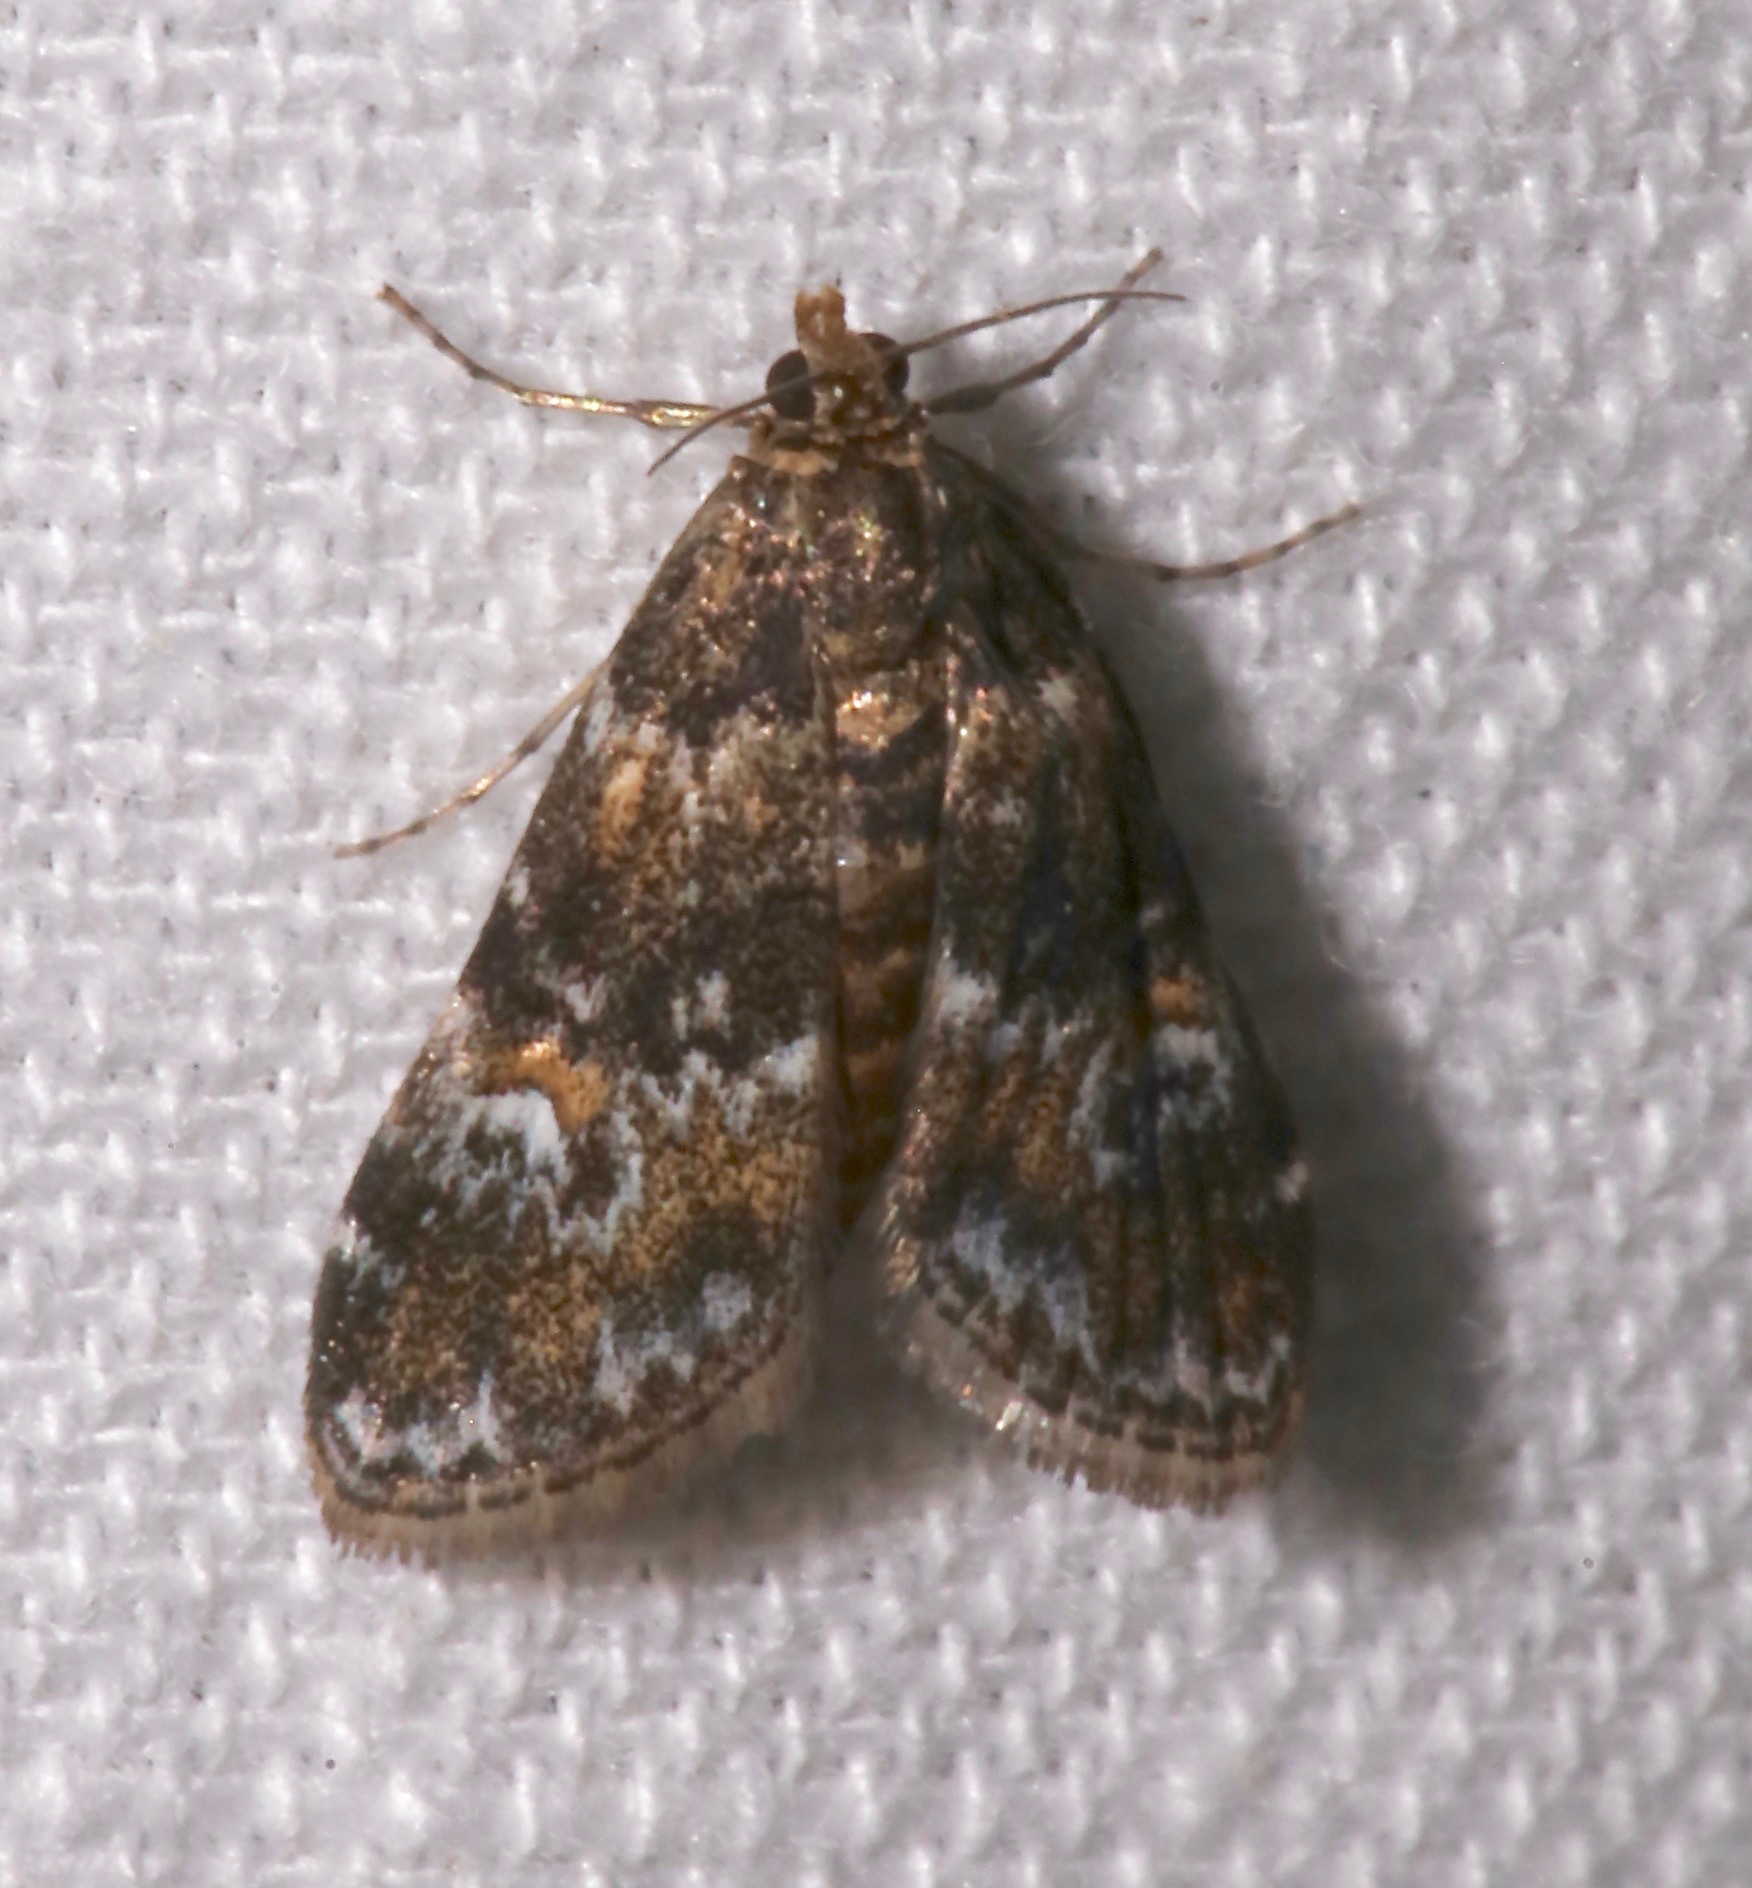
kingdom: Animalia
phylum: Arthropoda
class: Insecta
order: Lepidoptera
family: Crambidae
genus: Elophila
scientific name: Elophila obliteralis
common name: Waterlily leafcutter moth
